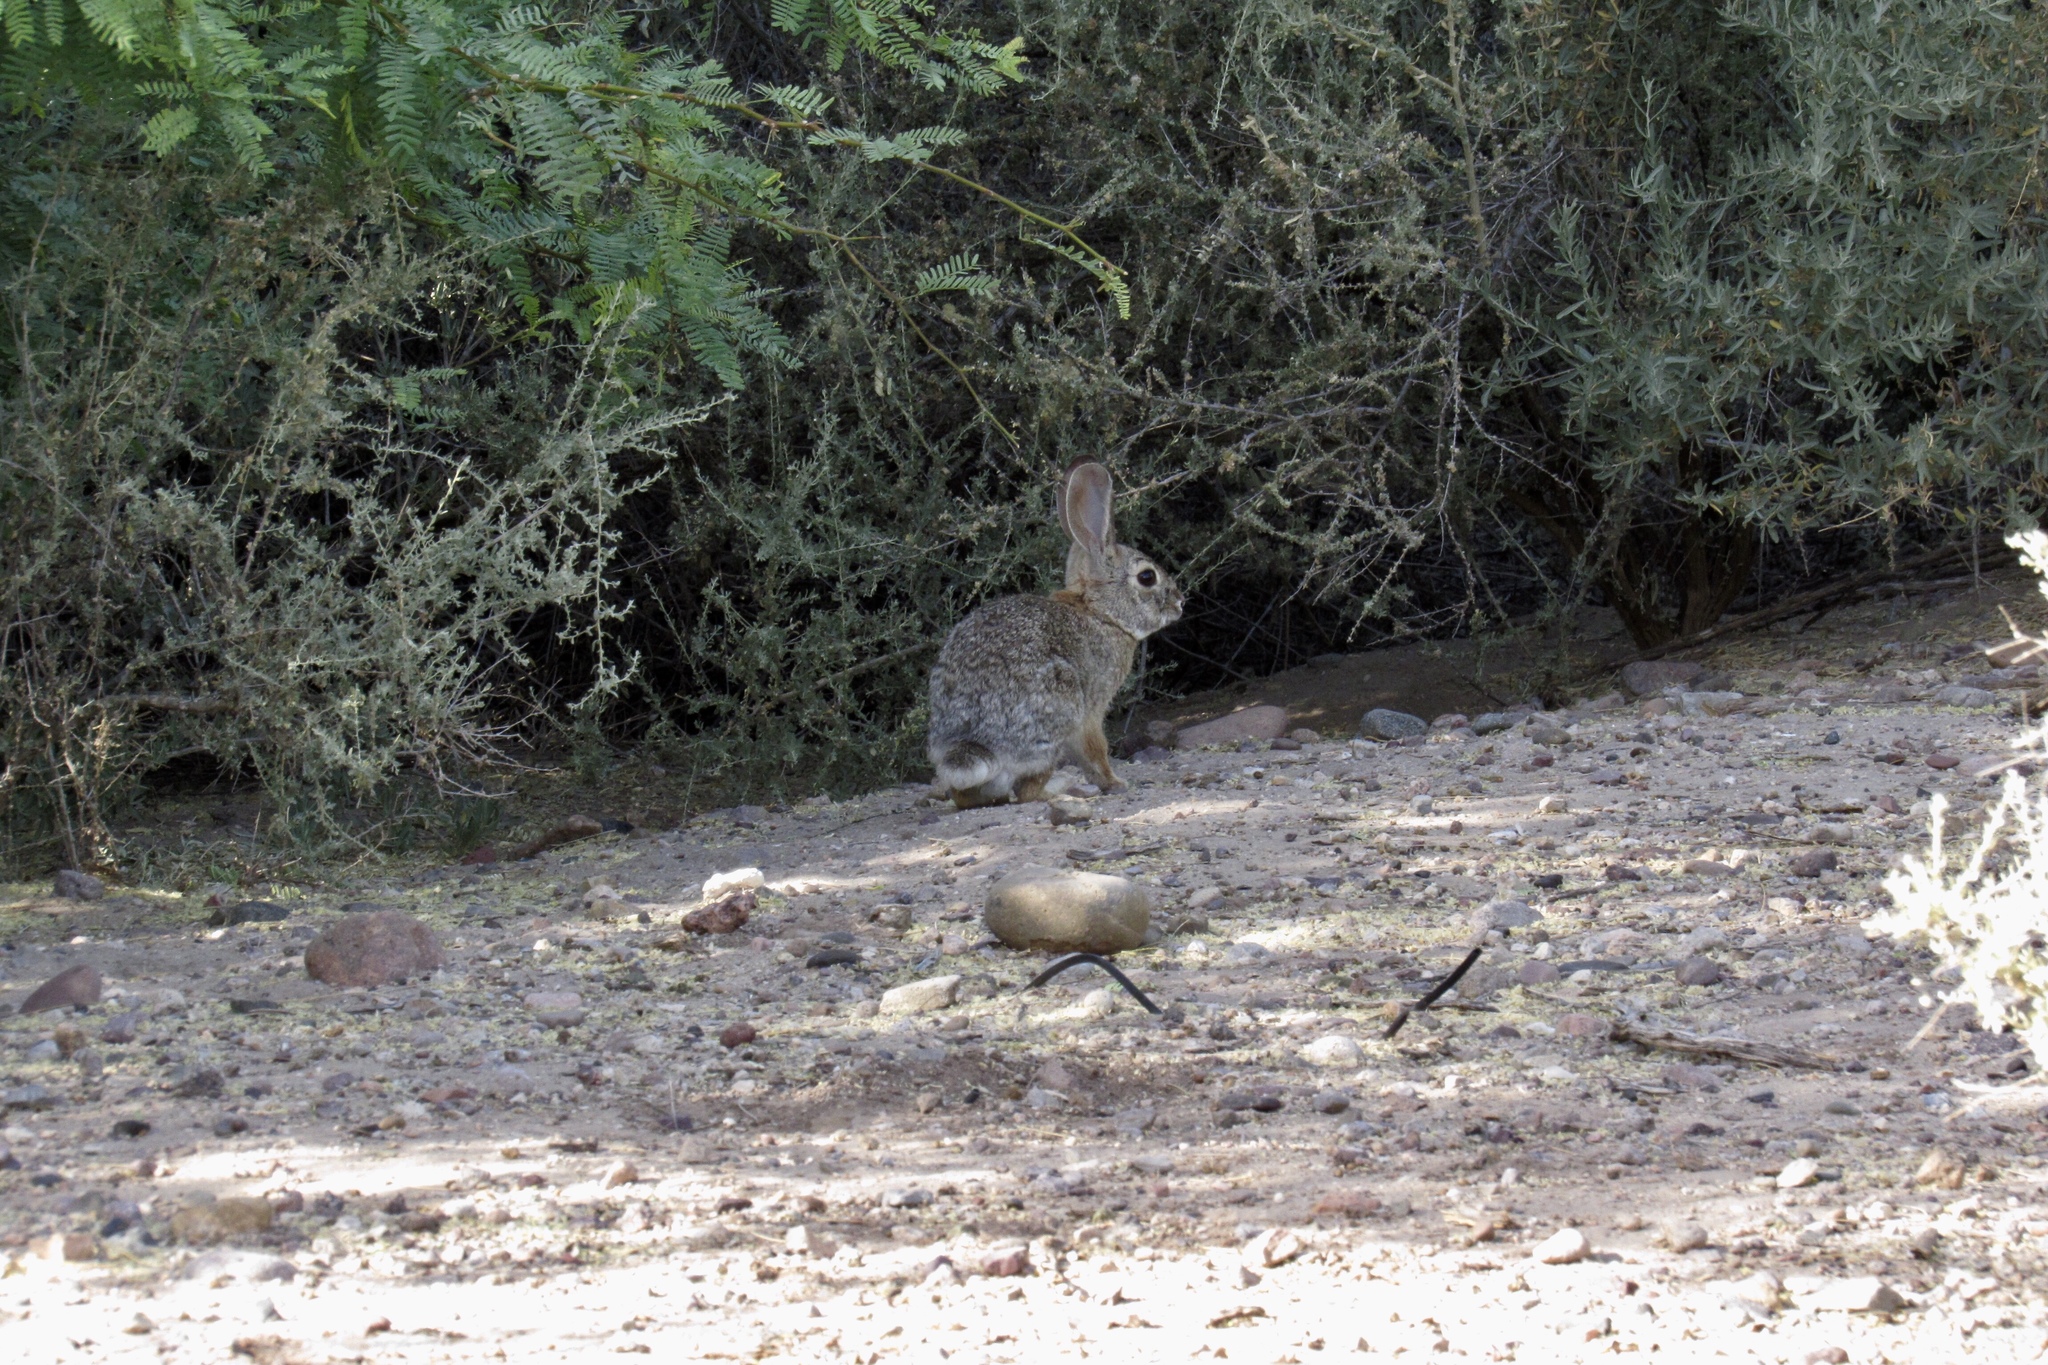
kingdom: Animalia
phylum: Chordata
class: Mammalia
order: Lagomorpha
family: Leporidae
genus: Sylvilagus
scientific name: Sylvilagus audubonii
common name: Desert cottontail
